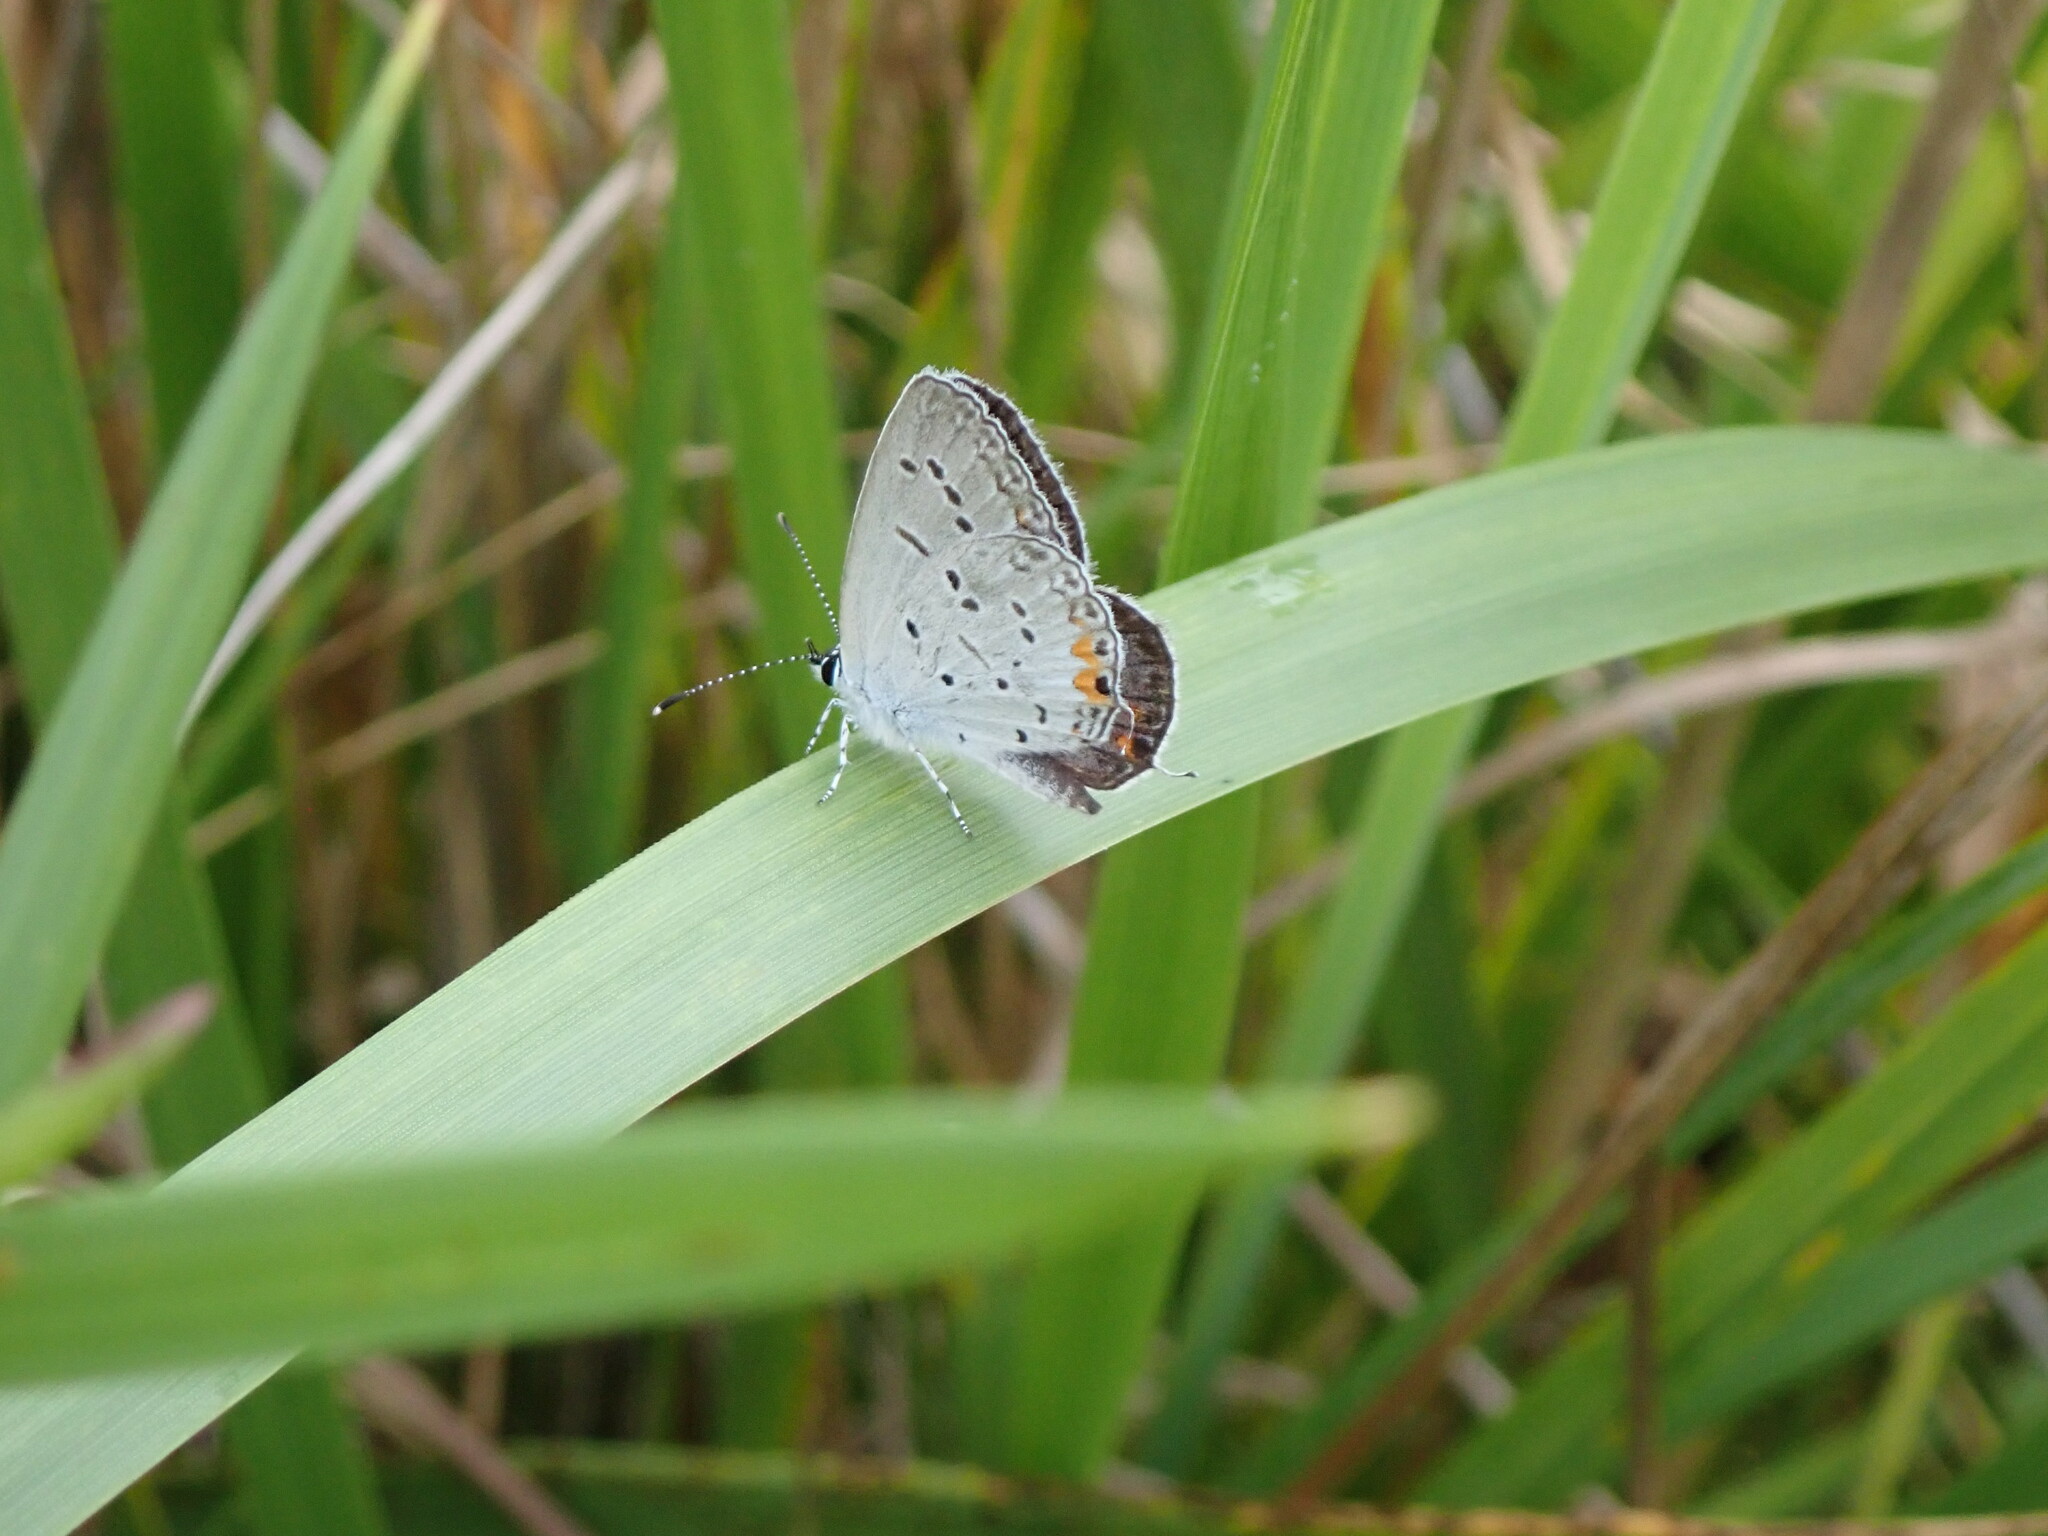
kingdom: Animalia
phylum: Arthropoda
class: Insecta
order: Lepidoptera
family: Lycaenidae
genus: Elkalyce
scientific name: Elkalyce comyntas
